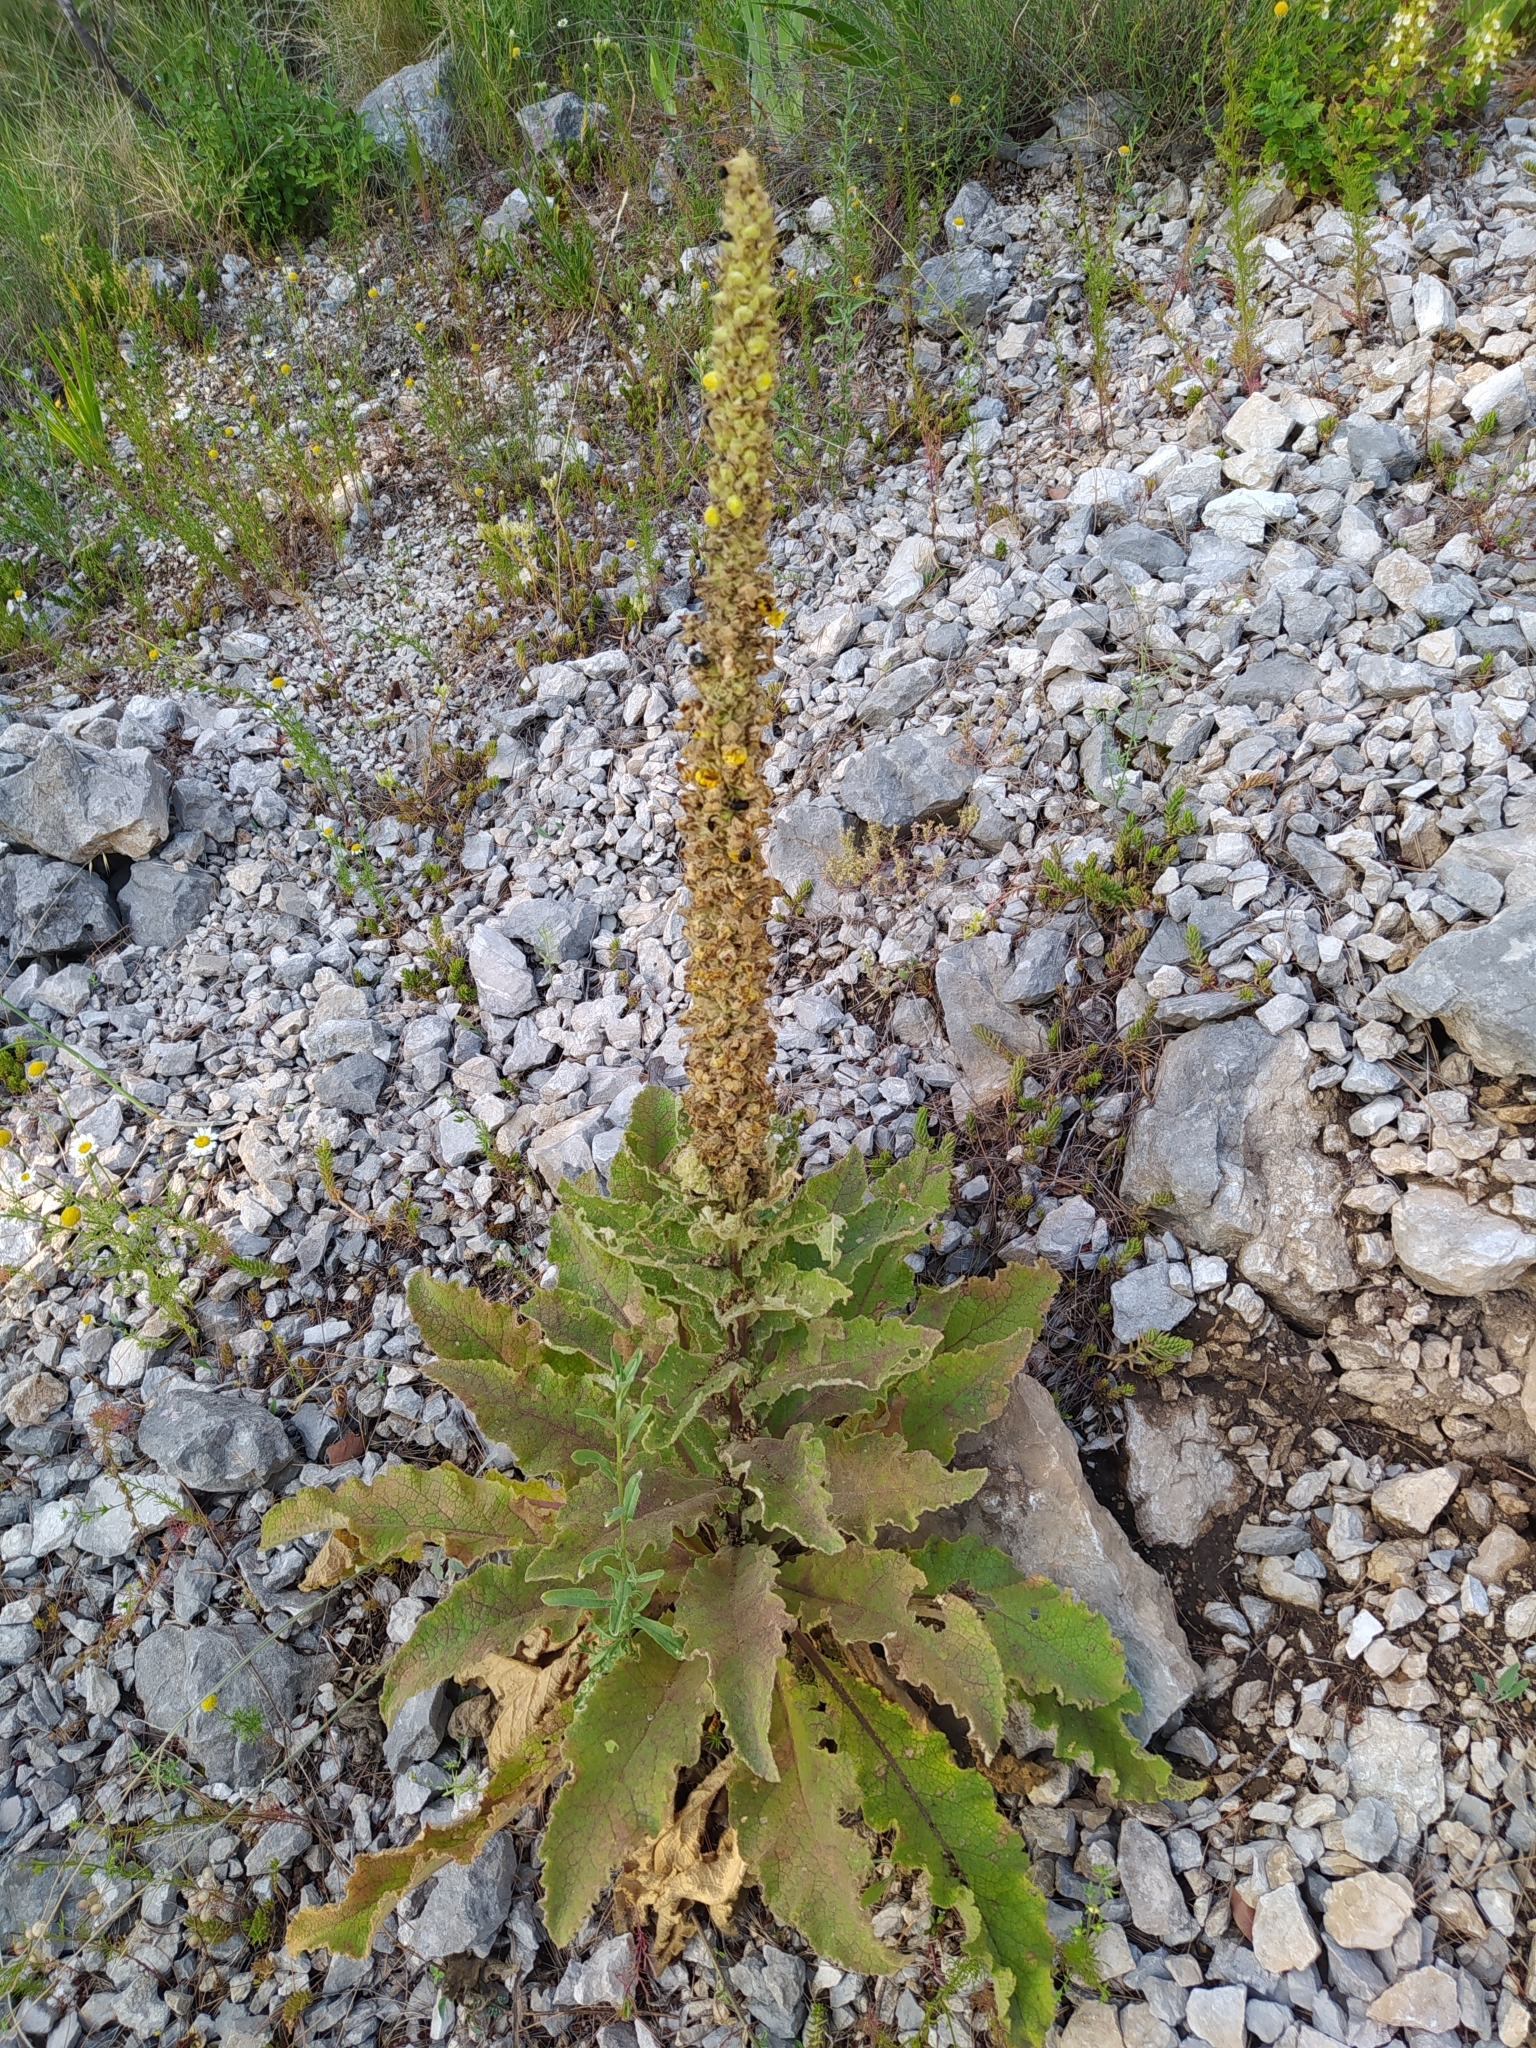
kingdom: Plantae
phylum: Tracheophyta
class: Magnoliopsida
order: Lamiales
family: Scrophulariaceae
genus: Verbascum
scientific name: Verbascum thapsus
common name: Common mullein
